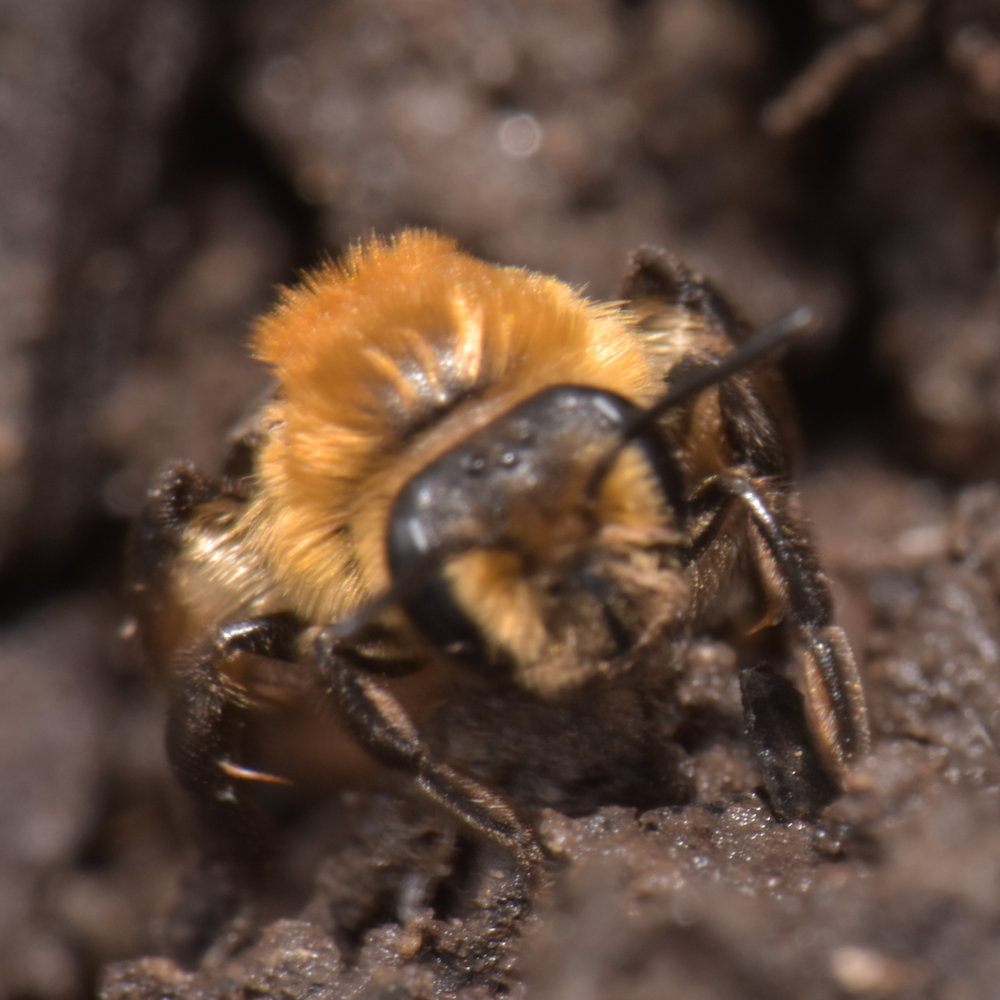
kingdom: Animalia
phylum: Arthropoda
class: Insecta
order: Hymenoptera
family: Andrenidae
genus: Andrena
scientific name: Andrena dunningi
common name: Dunning's miner
